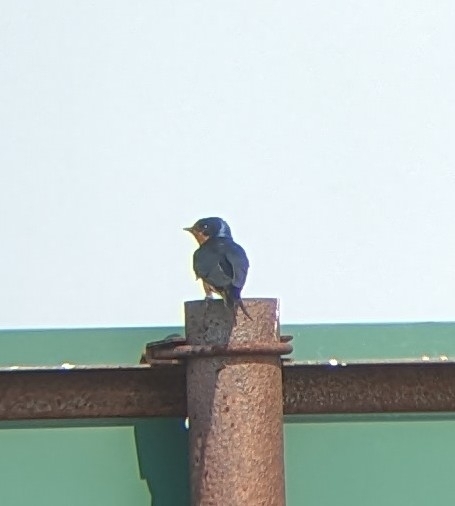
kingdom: Animalia
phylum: Chordata
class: Aves
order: Passeriformes
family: Hirundinidae
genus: Hirundo
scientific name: Hirundo rustica
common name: Barn swallow
